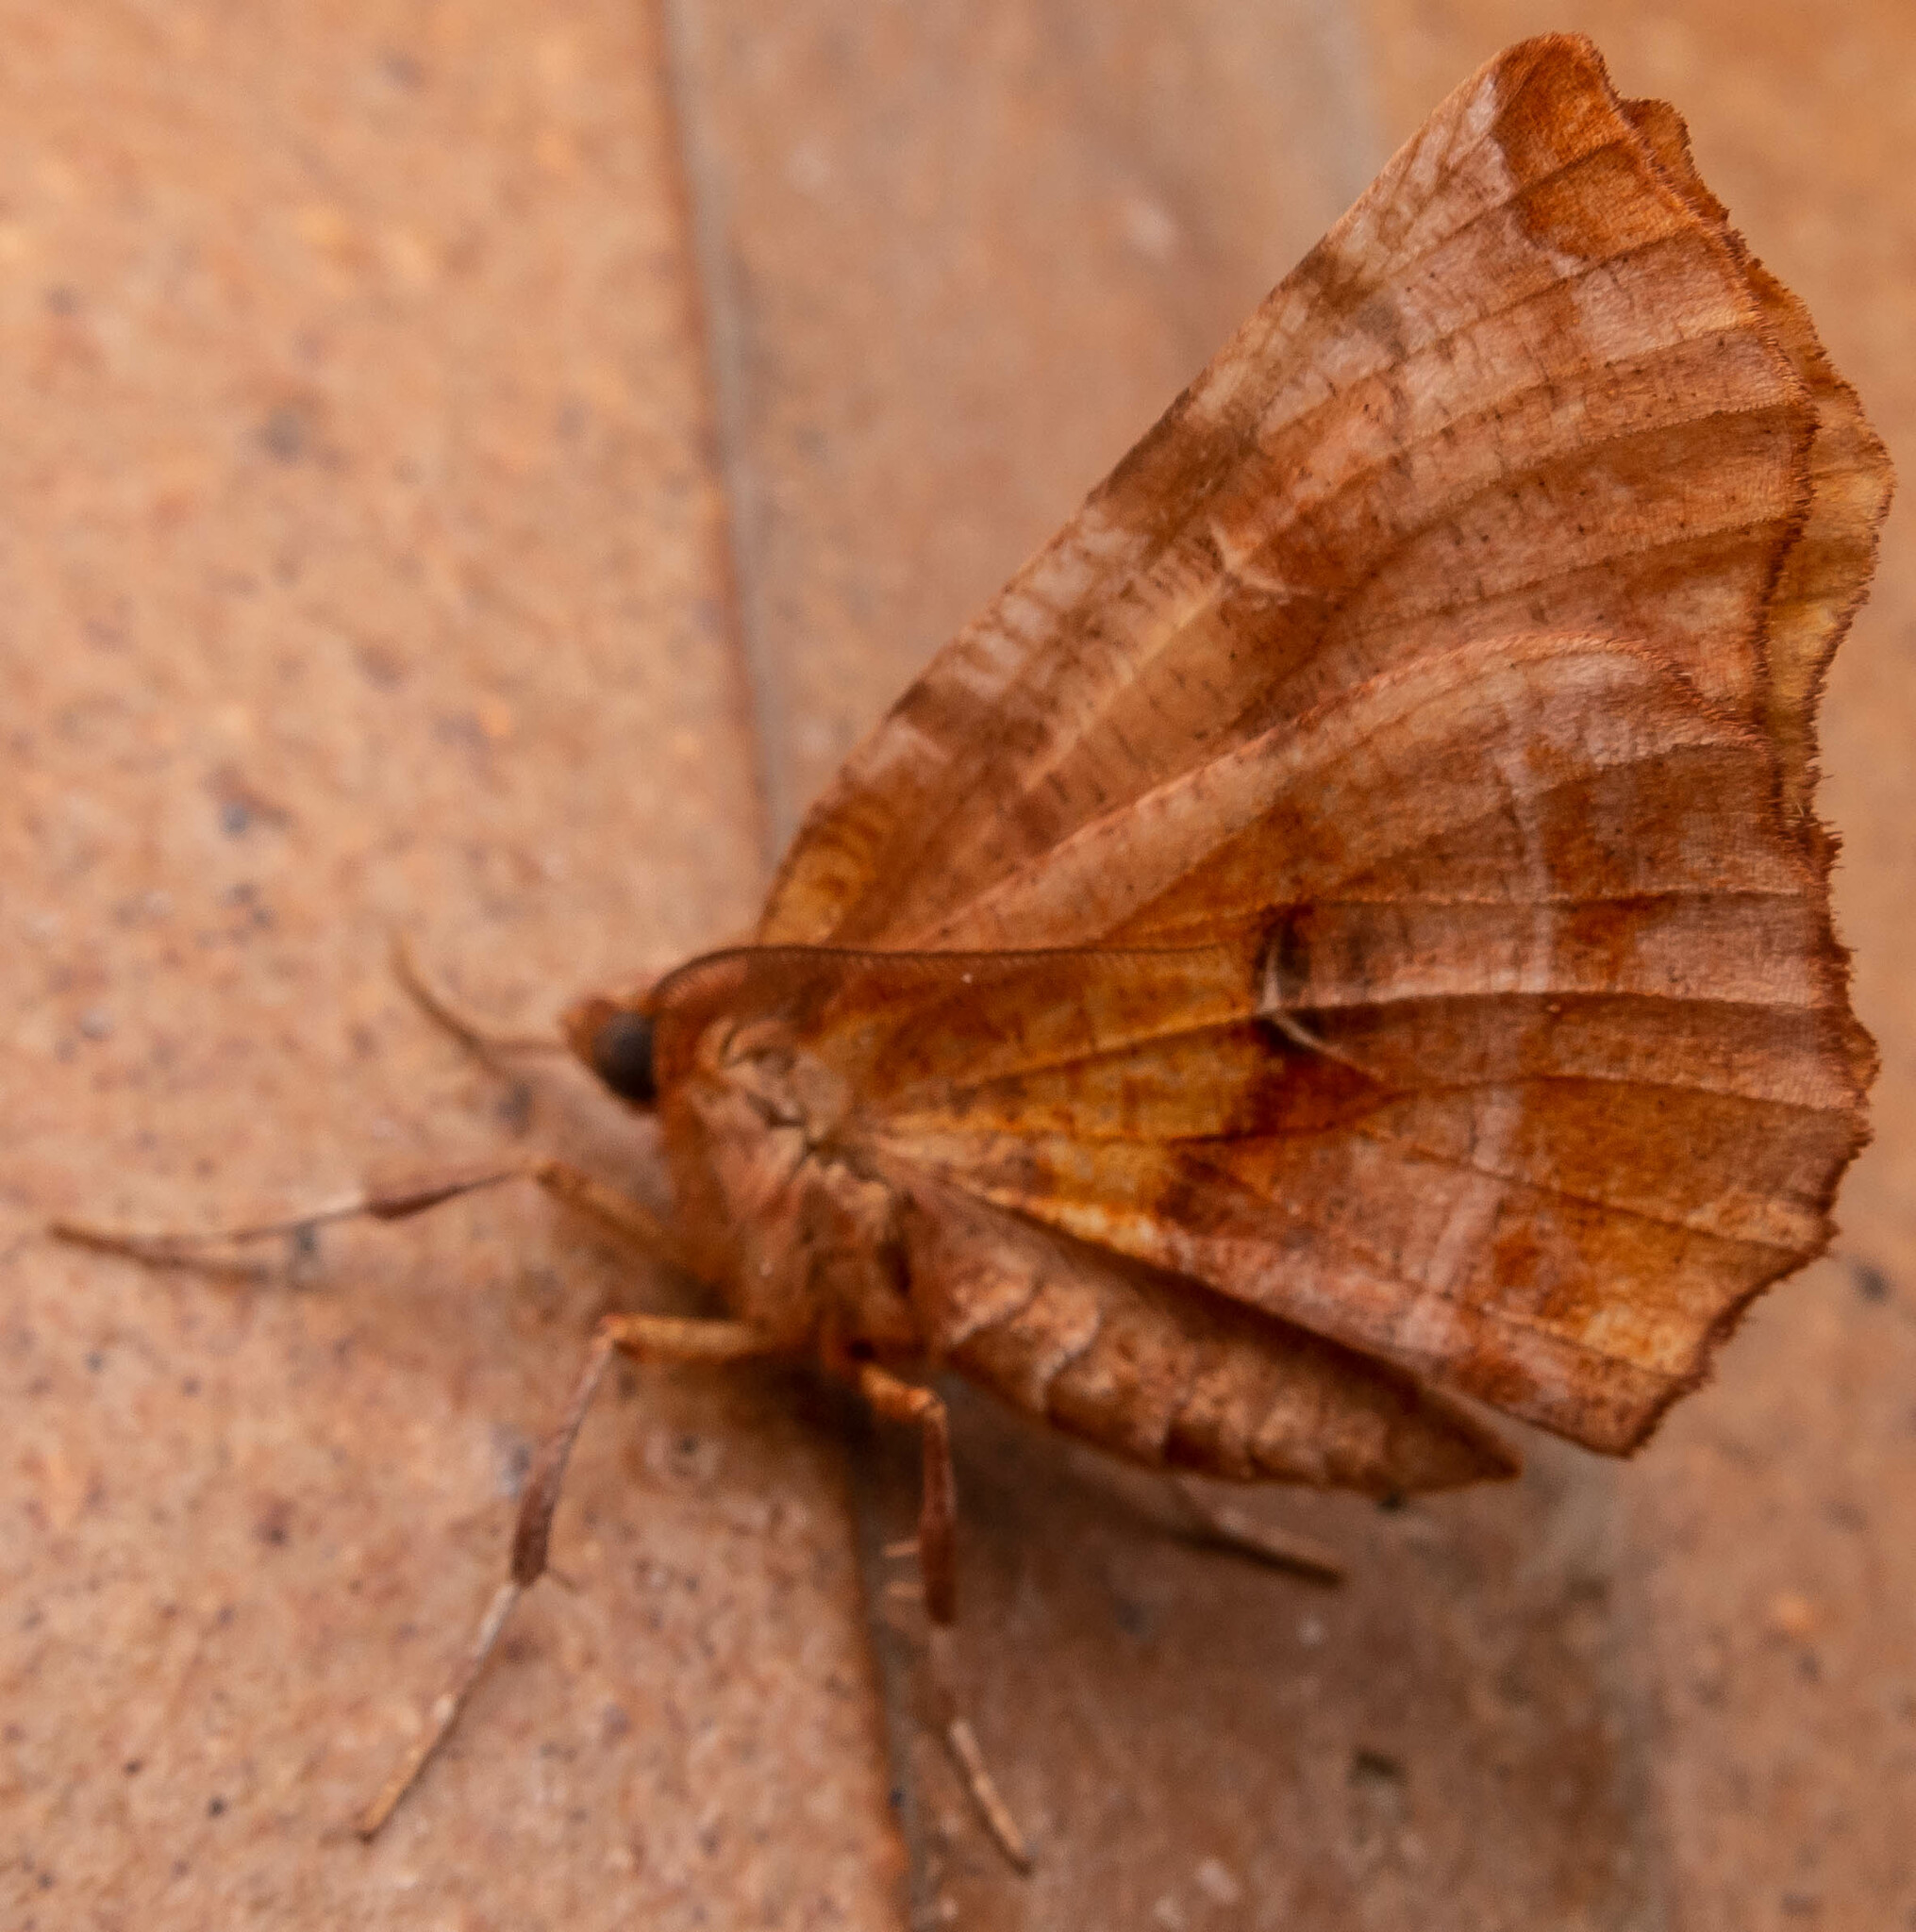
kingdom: Animalia
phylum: Arthropoda
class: Insecta
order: Lepidoptera
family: Geometridae
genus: Selenia
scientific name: Selenia dentaria
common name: Early thorn
